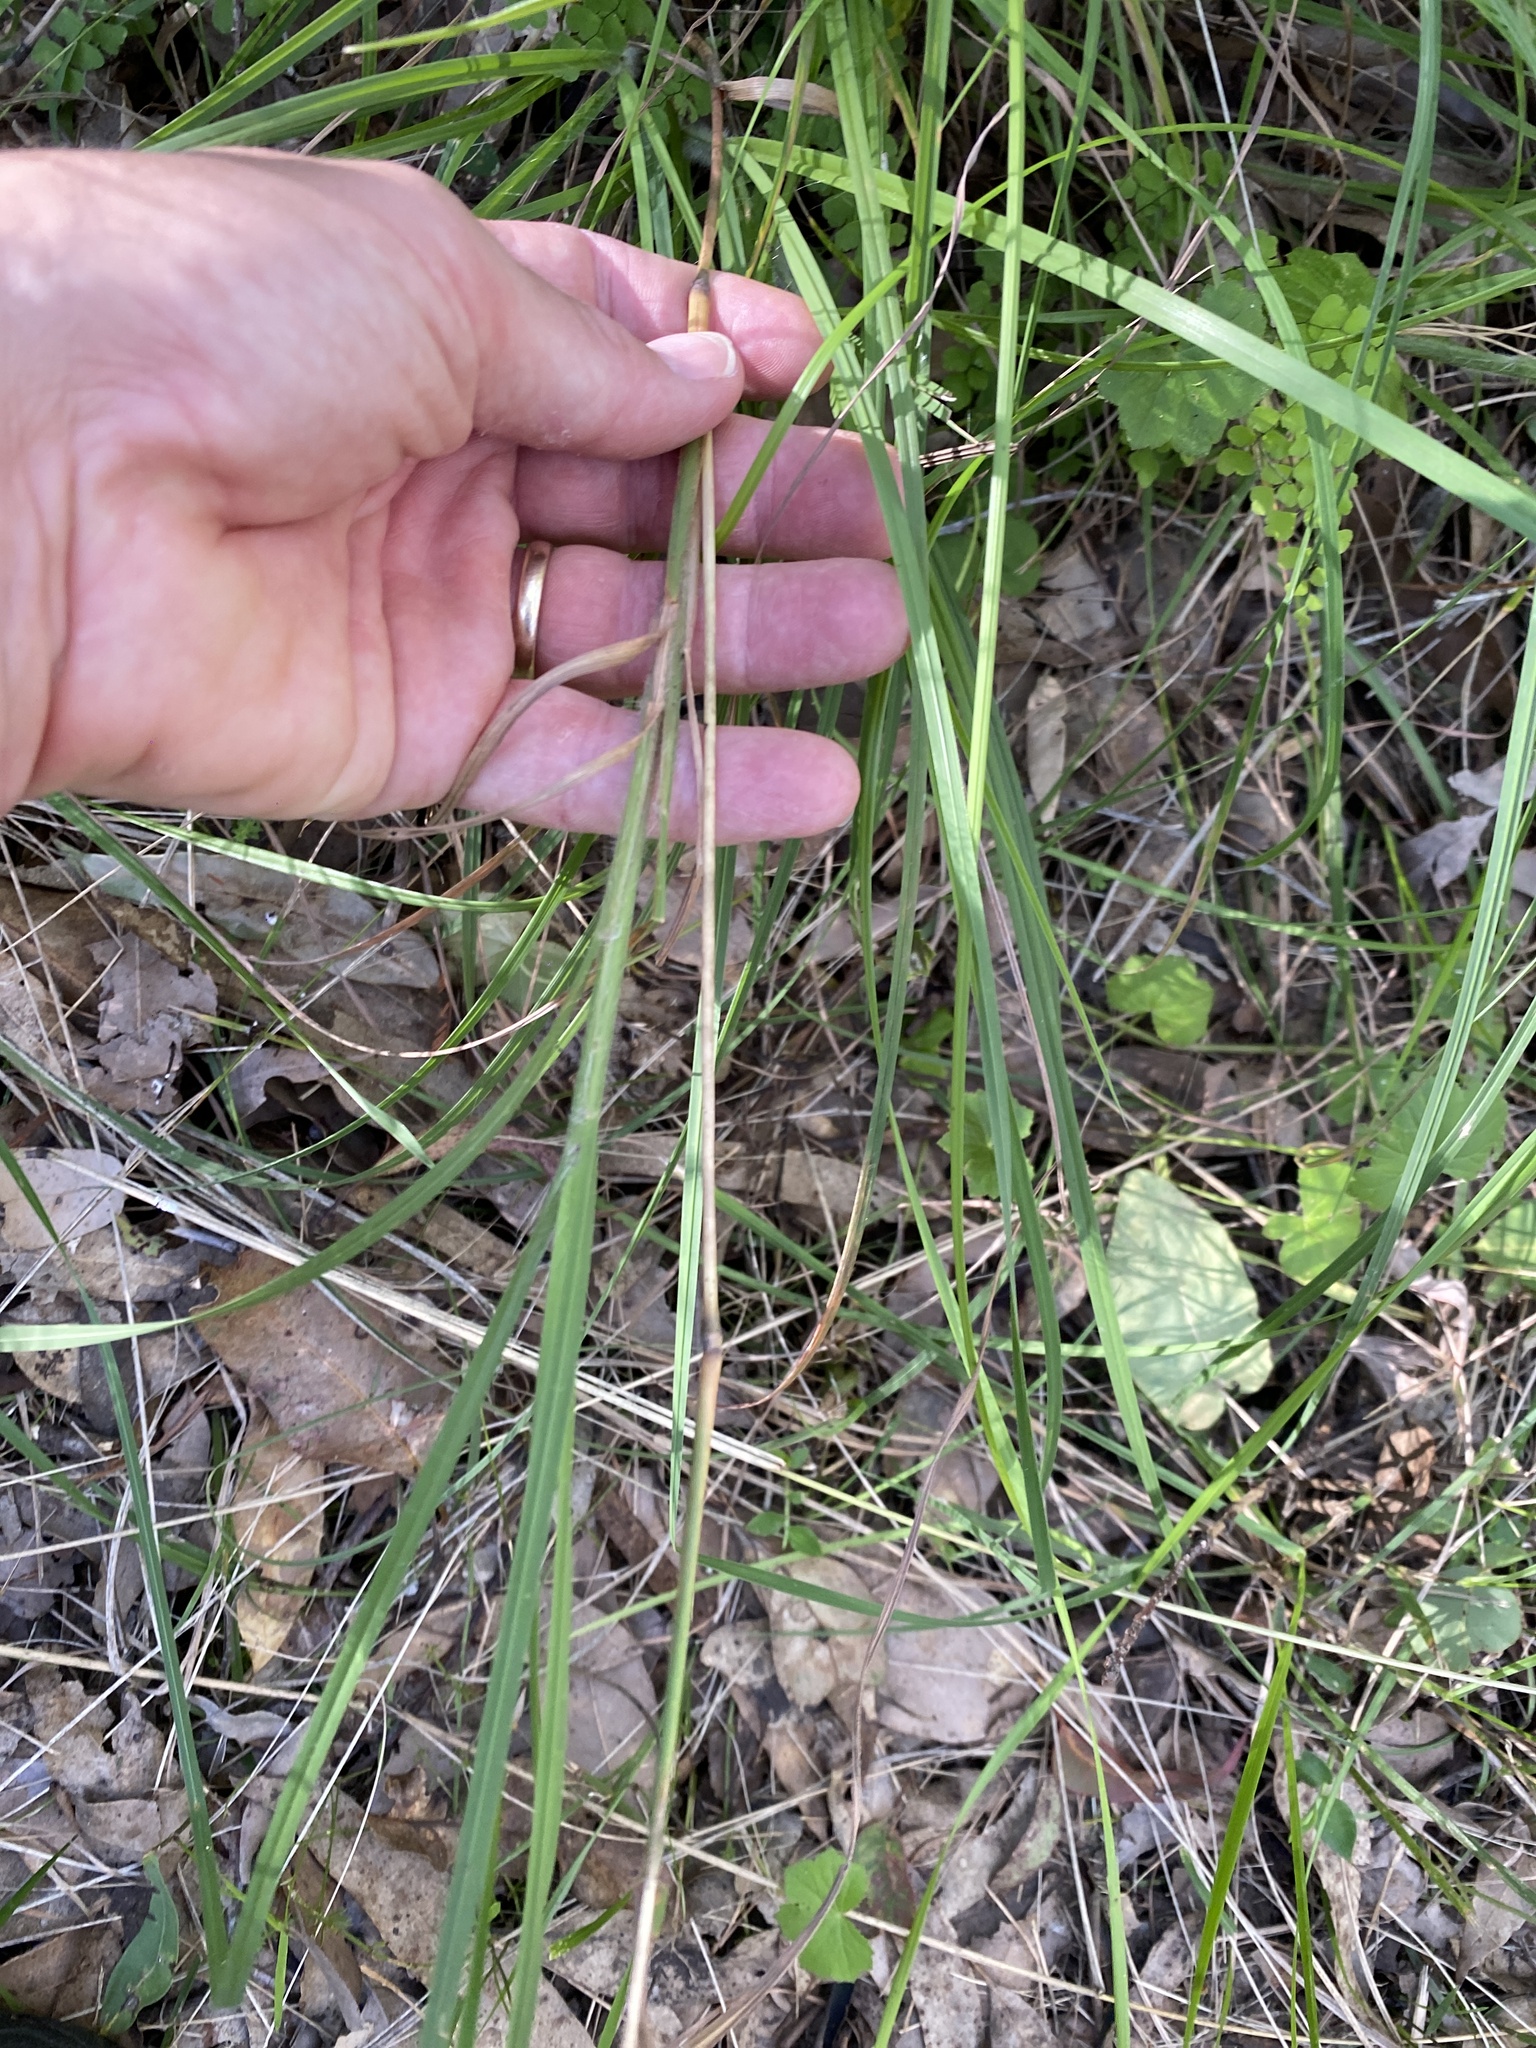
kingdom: Plantae
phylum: Tracheophyta
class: Liliopsida
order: Poales
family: Poaceae
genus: Themeda
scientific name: Themeda triandra
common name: Kangaroo grass
